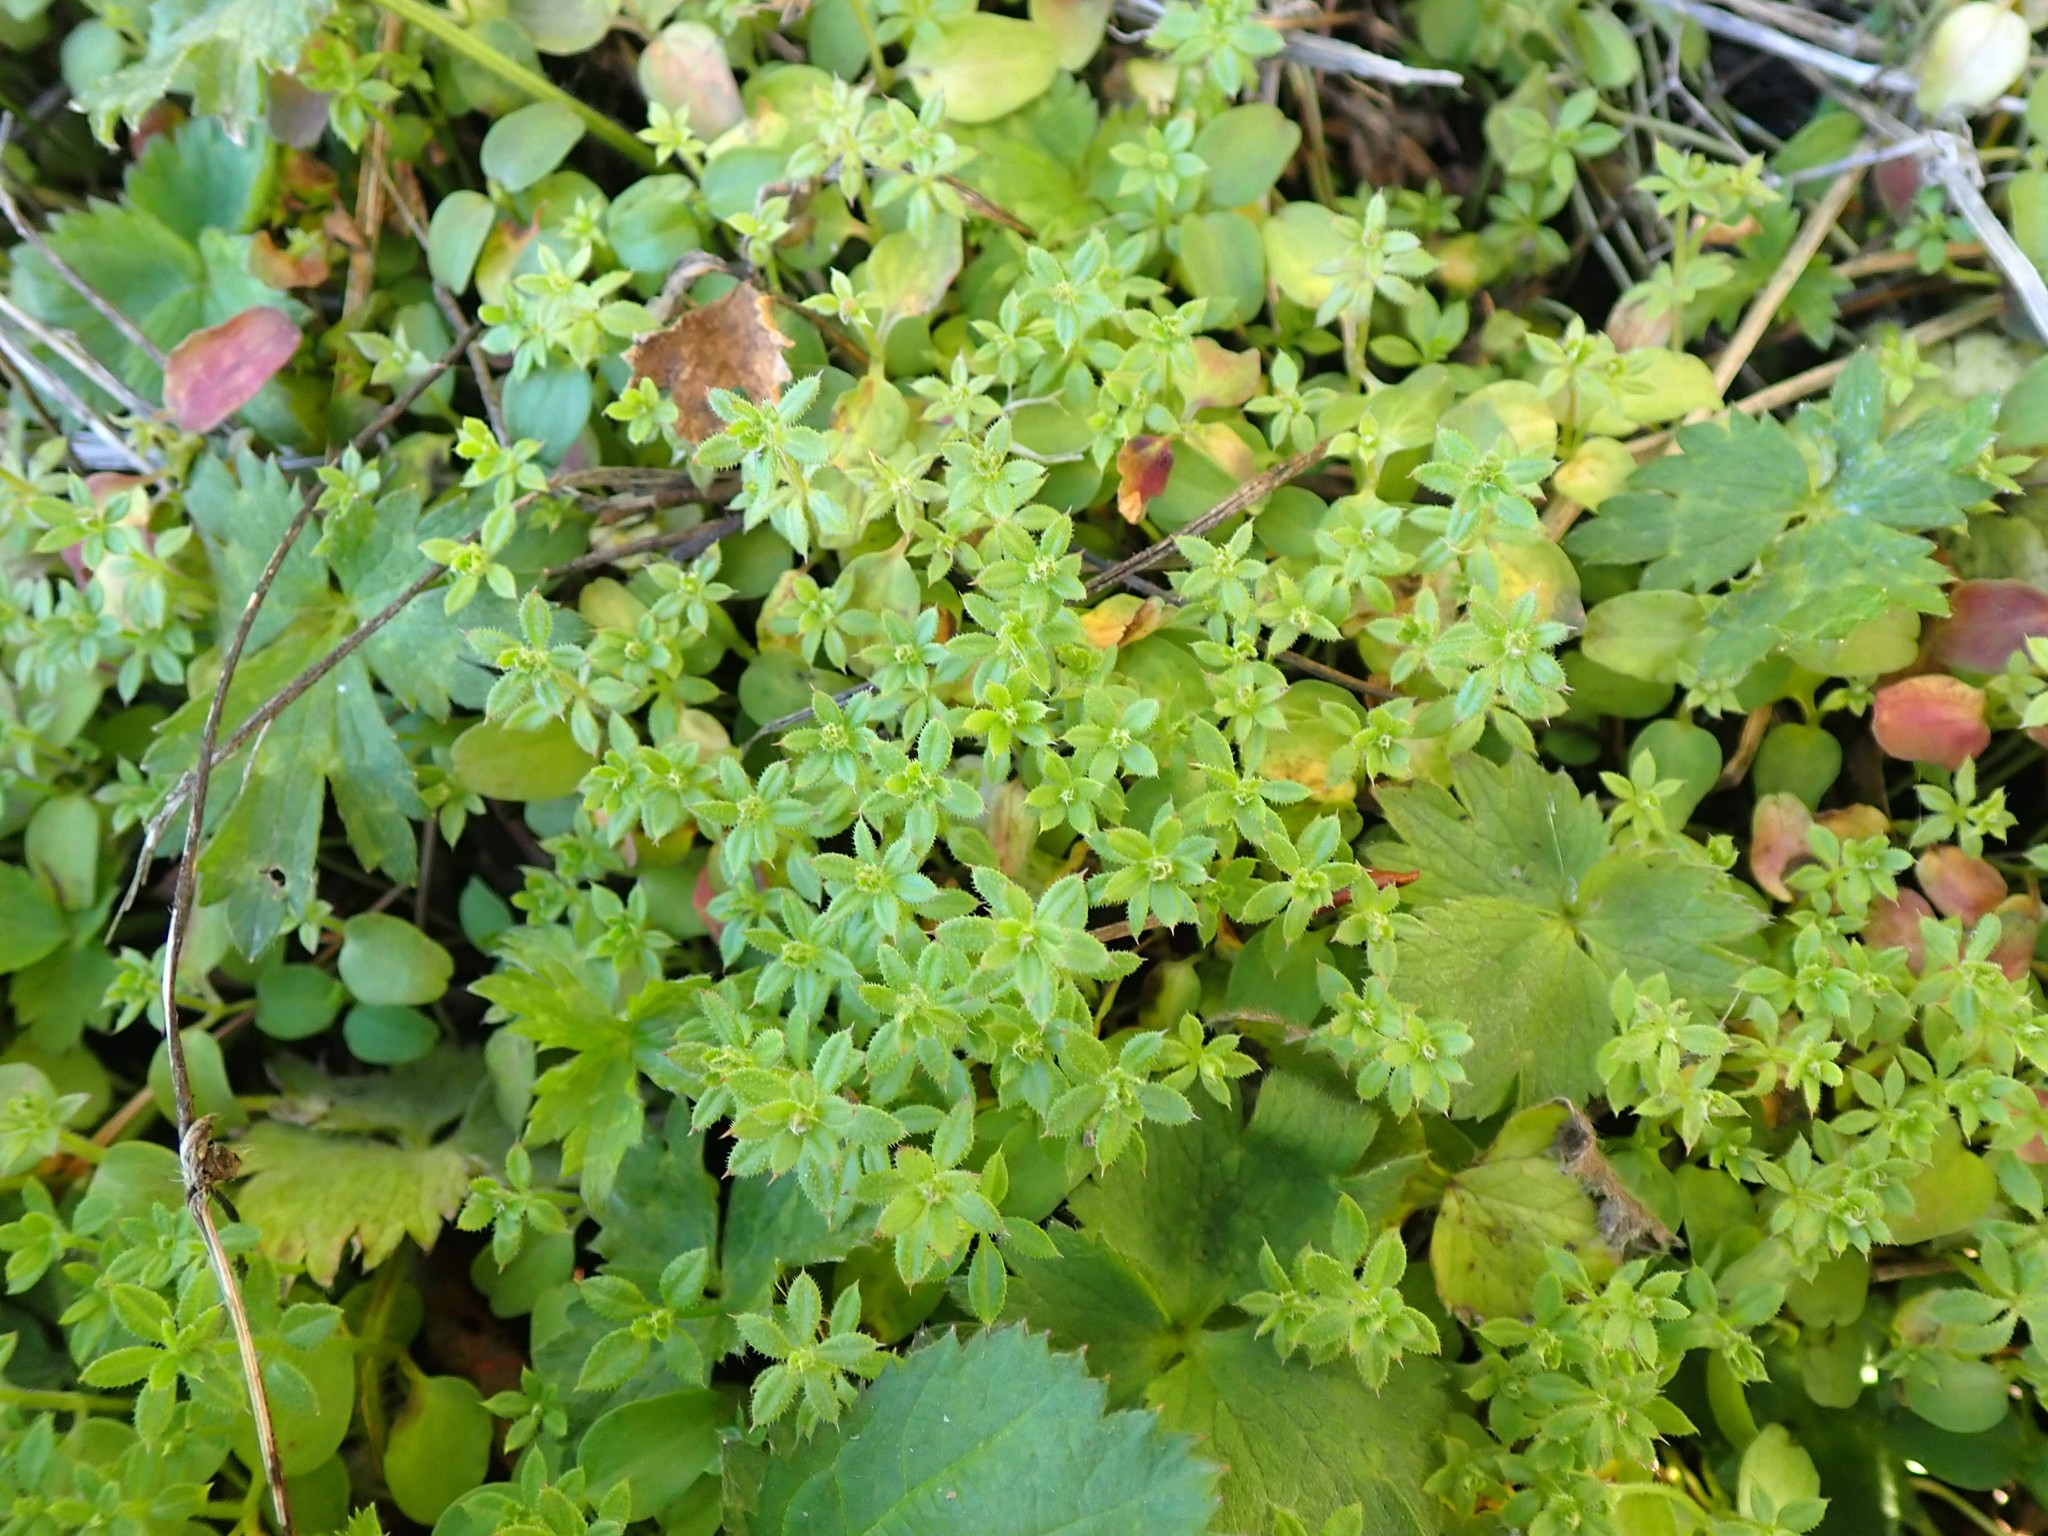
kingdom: Plantae
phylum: Tracheophyta
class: Magnoliopsida
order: Gentianales
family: Rubiaceae
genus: Galium
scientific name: Galium aparine
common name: Cleavers
